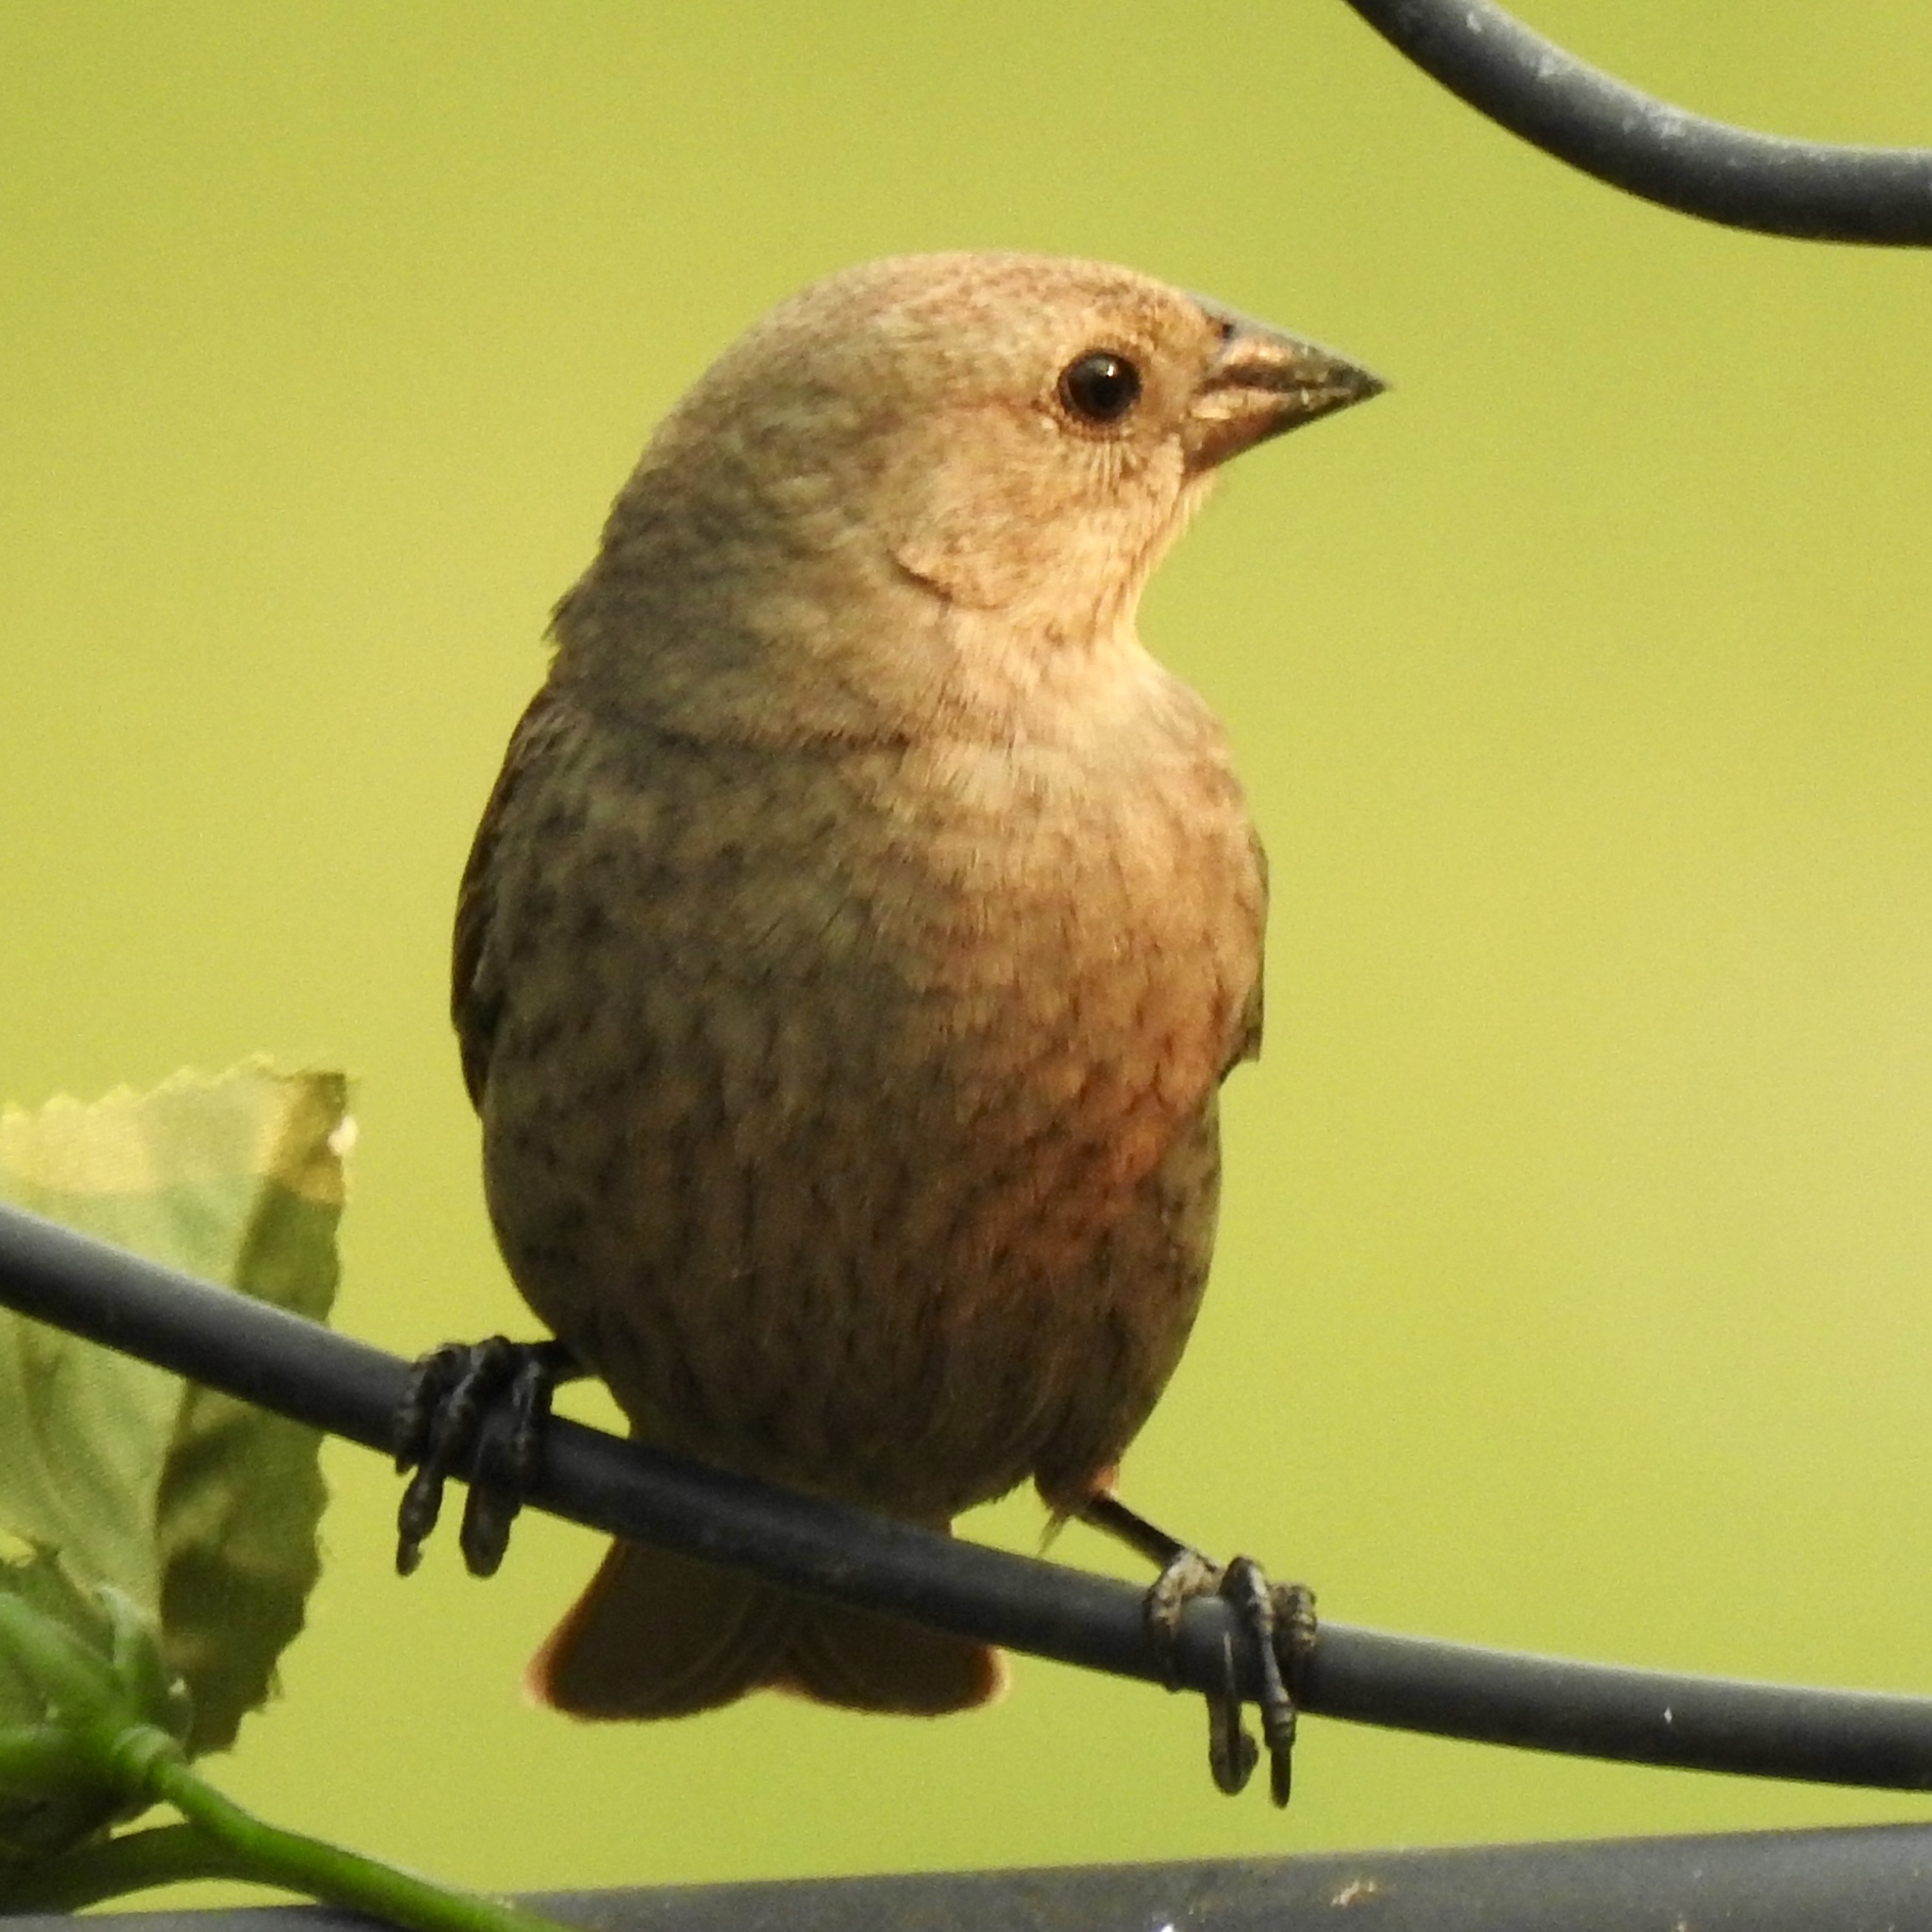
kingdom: Animalia
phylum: Chordata
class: Aves
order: Passeriformes
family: Icteridae
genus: Molothrus
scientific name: Molothrus ater
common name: Brown-headed cowbird
